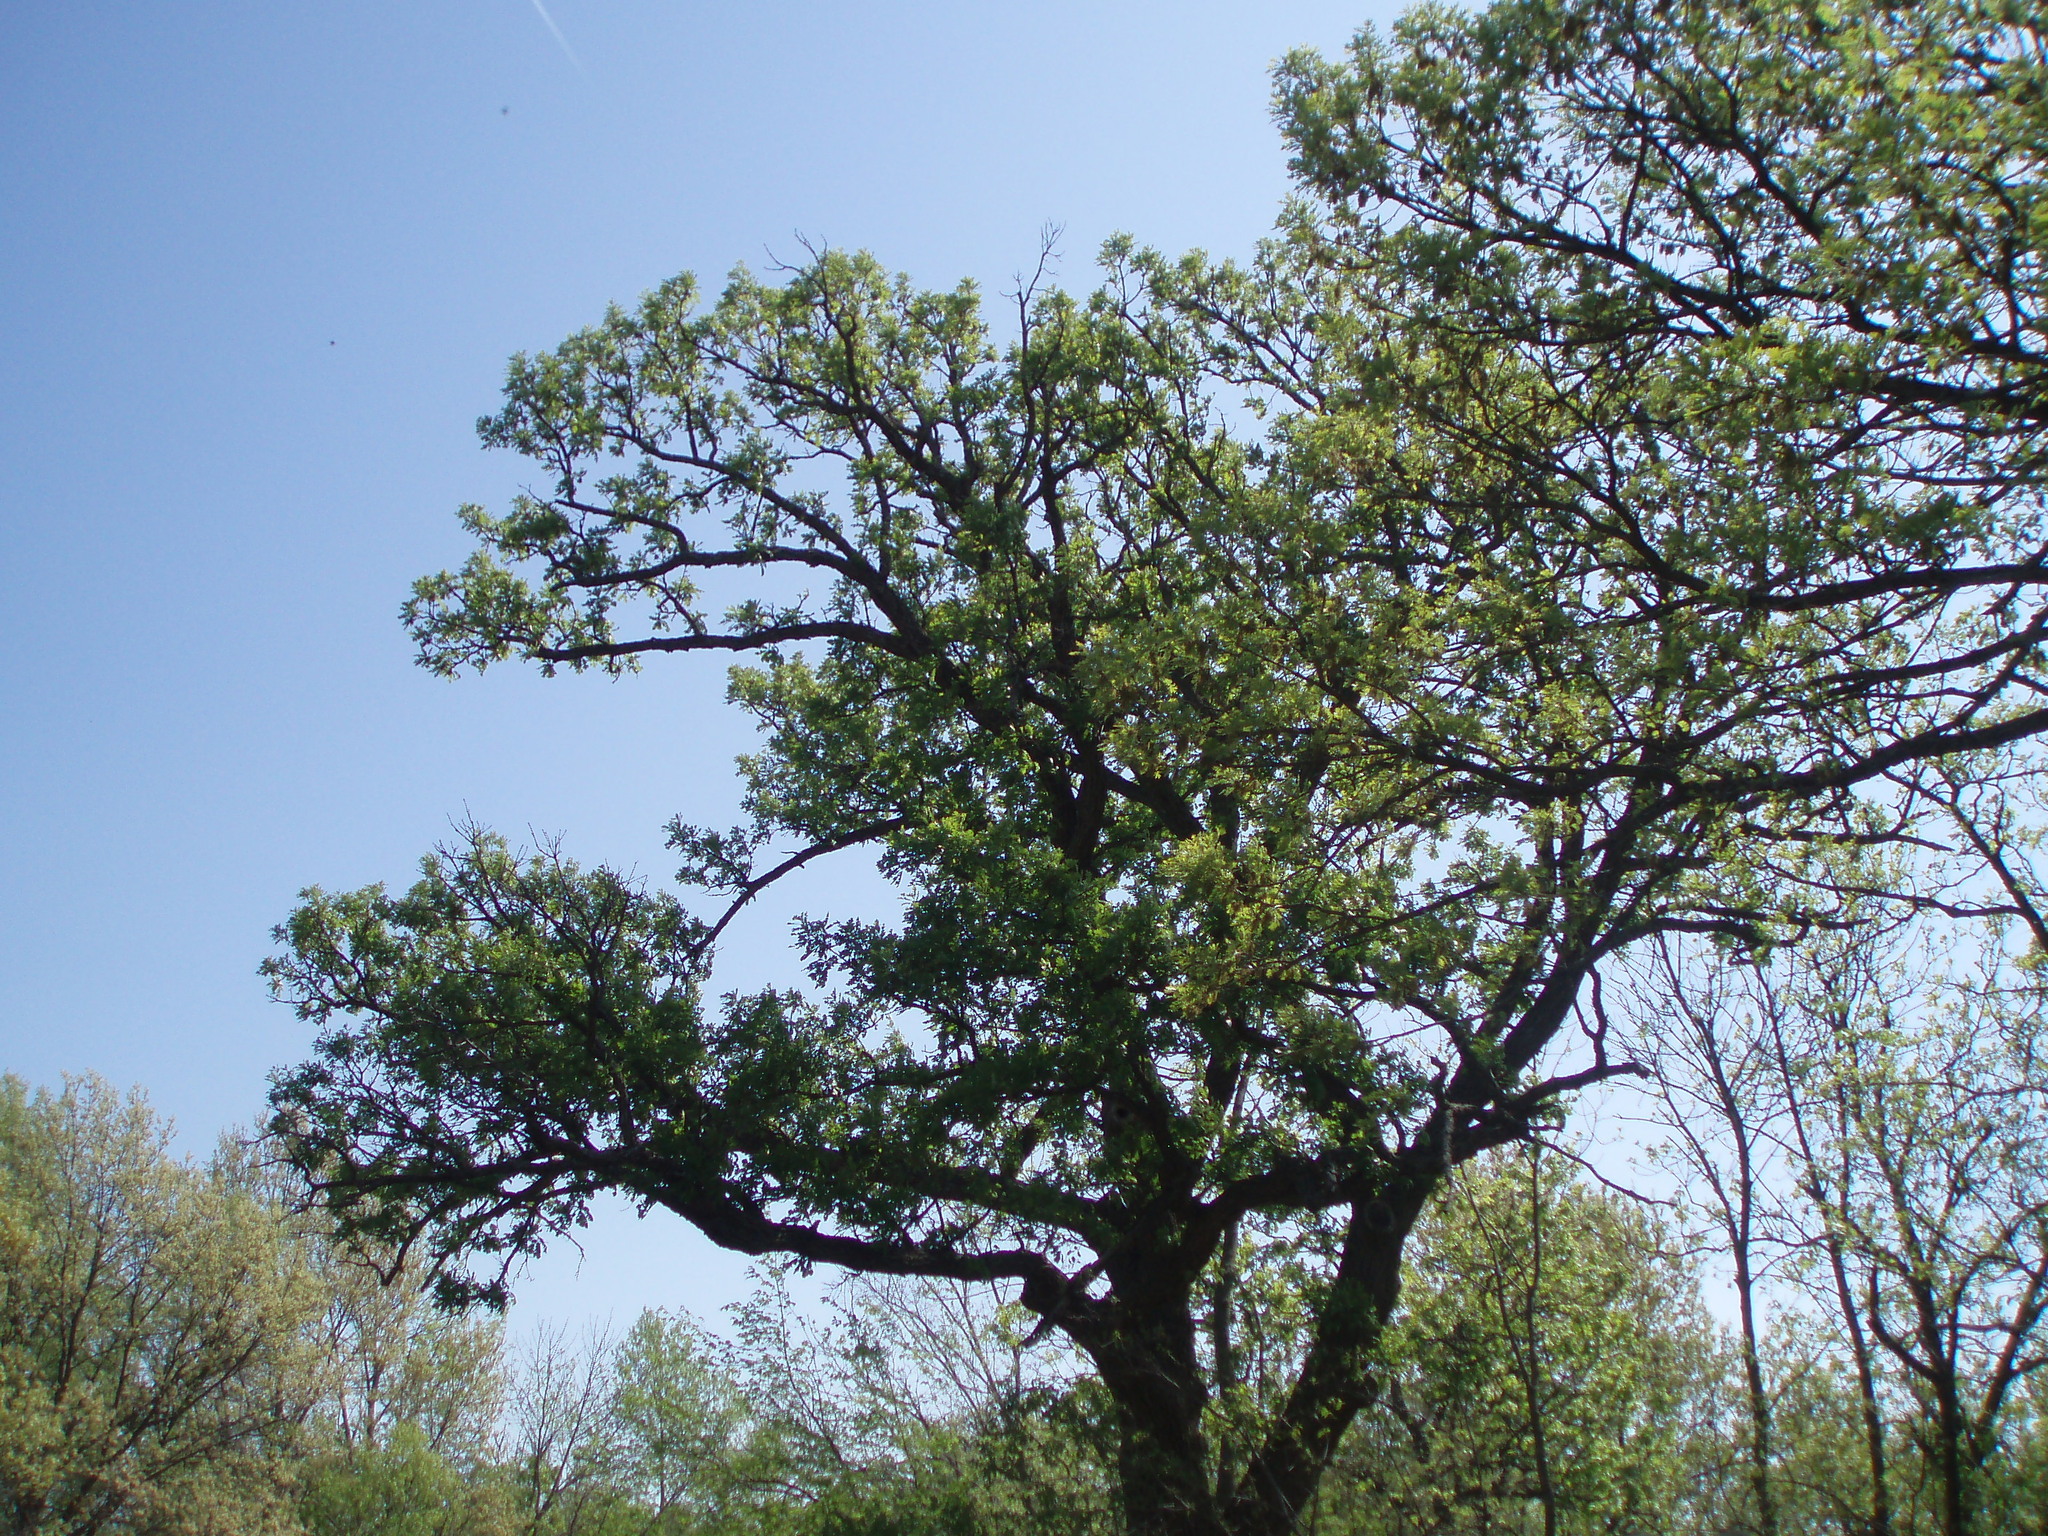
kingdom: Plantae
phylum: Tracheophyta
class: Magnoliopsida
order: Fagales
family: Fagaceae
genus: Quercus
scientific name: Quercus macrocarpa
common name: Bur oak
